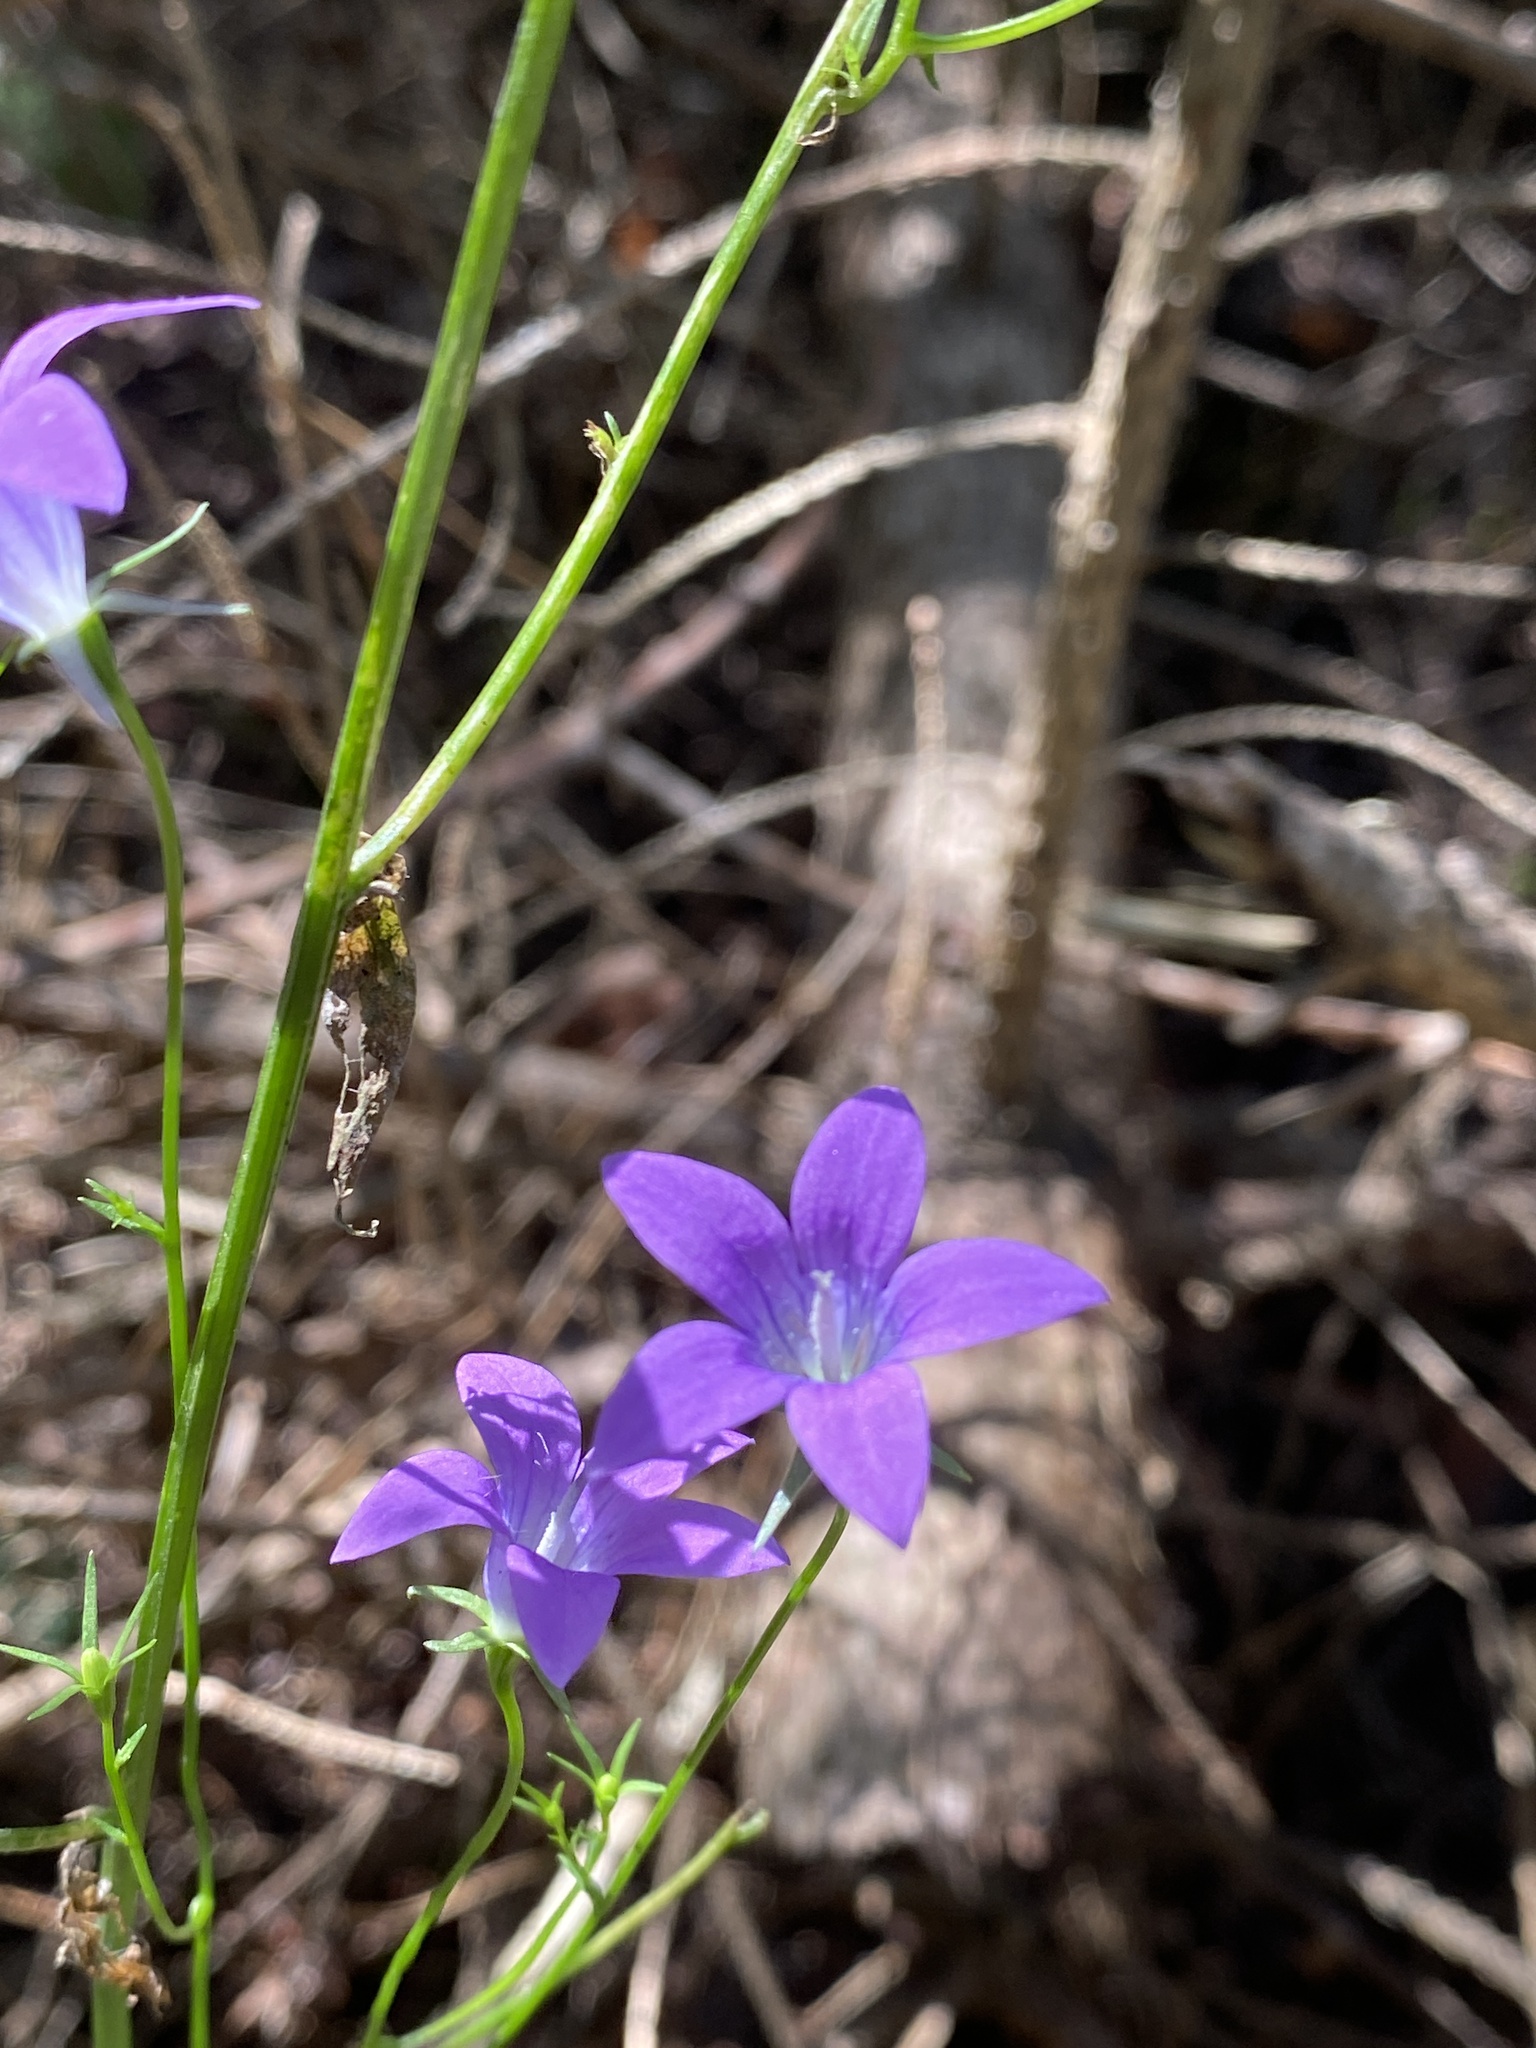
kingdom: Plantae
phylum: Tracheophyta
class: Magnoliopsida
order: Asterales
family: Campanulaceae
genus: Campanula
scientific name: Campanula patula
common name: Spreading bellflower
